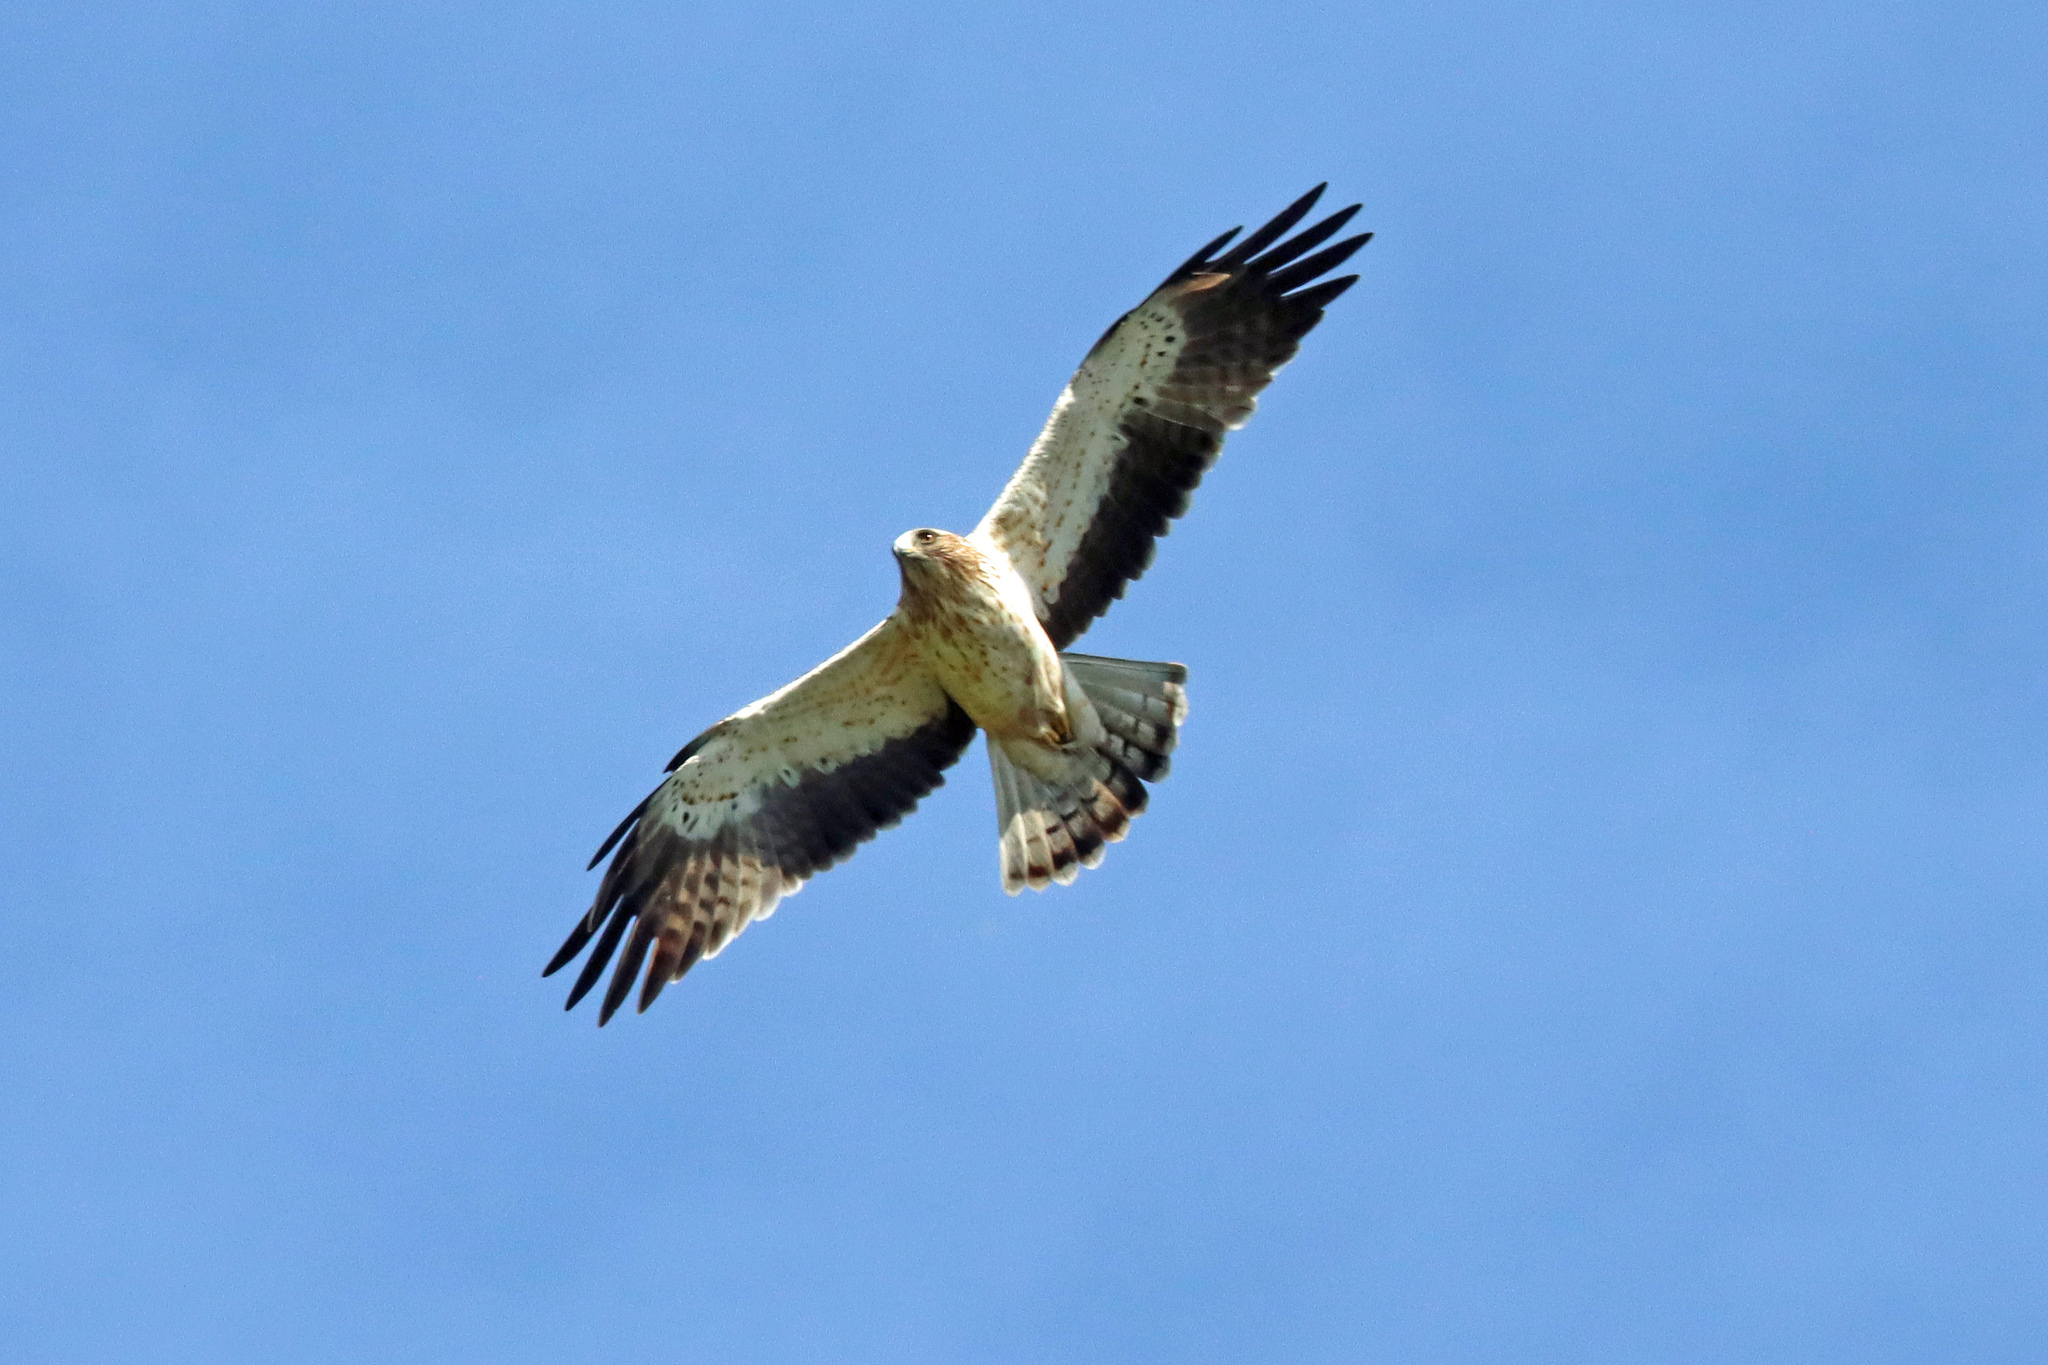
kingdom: Animalia
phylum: Chordata
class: Aves
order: Accipitriformes
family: Accipitridae
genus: Hieraaetus
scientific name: Hieraaetus pennatus
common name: Booted eagle
